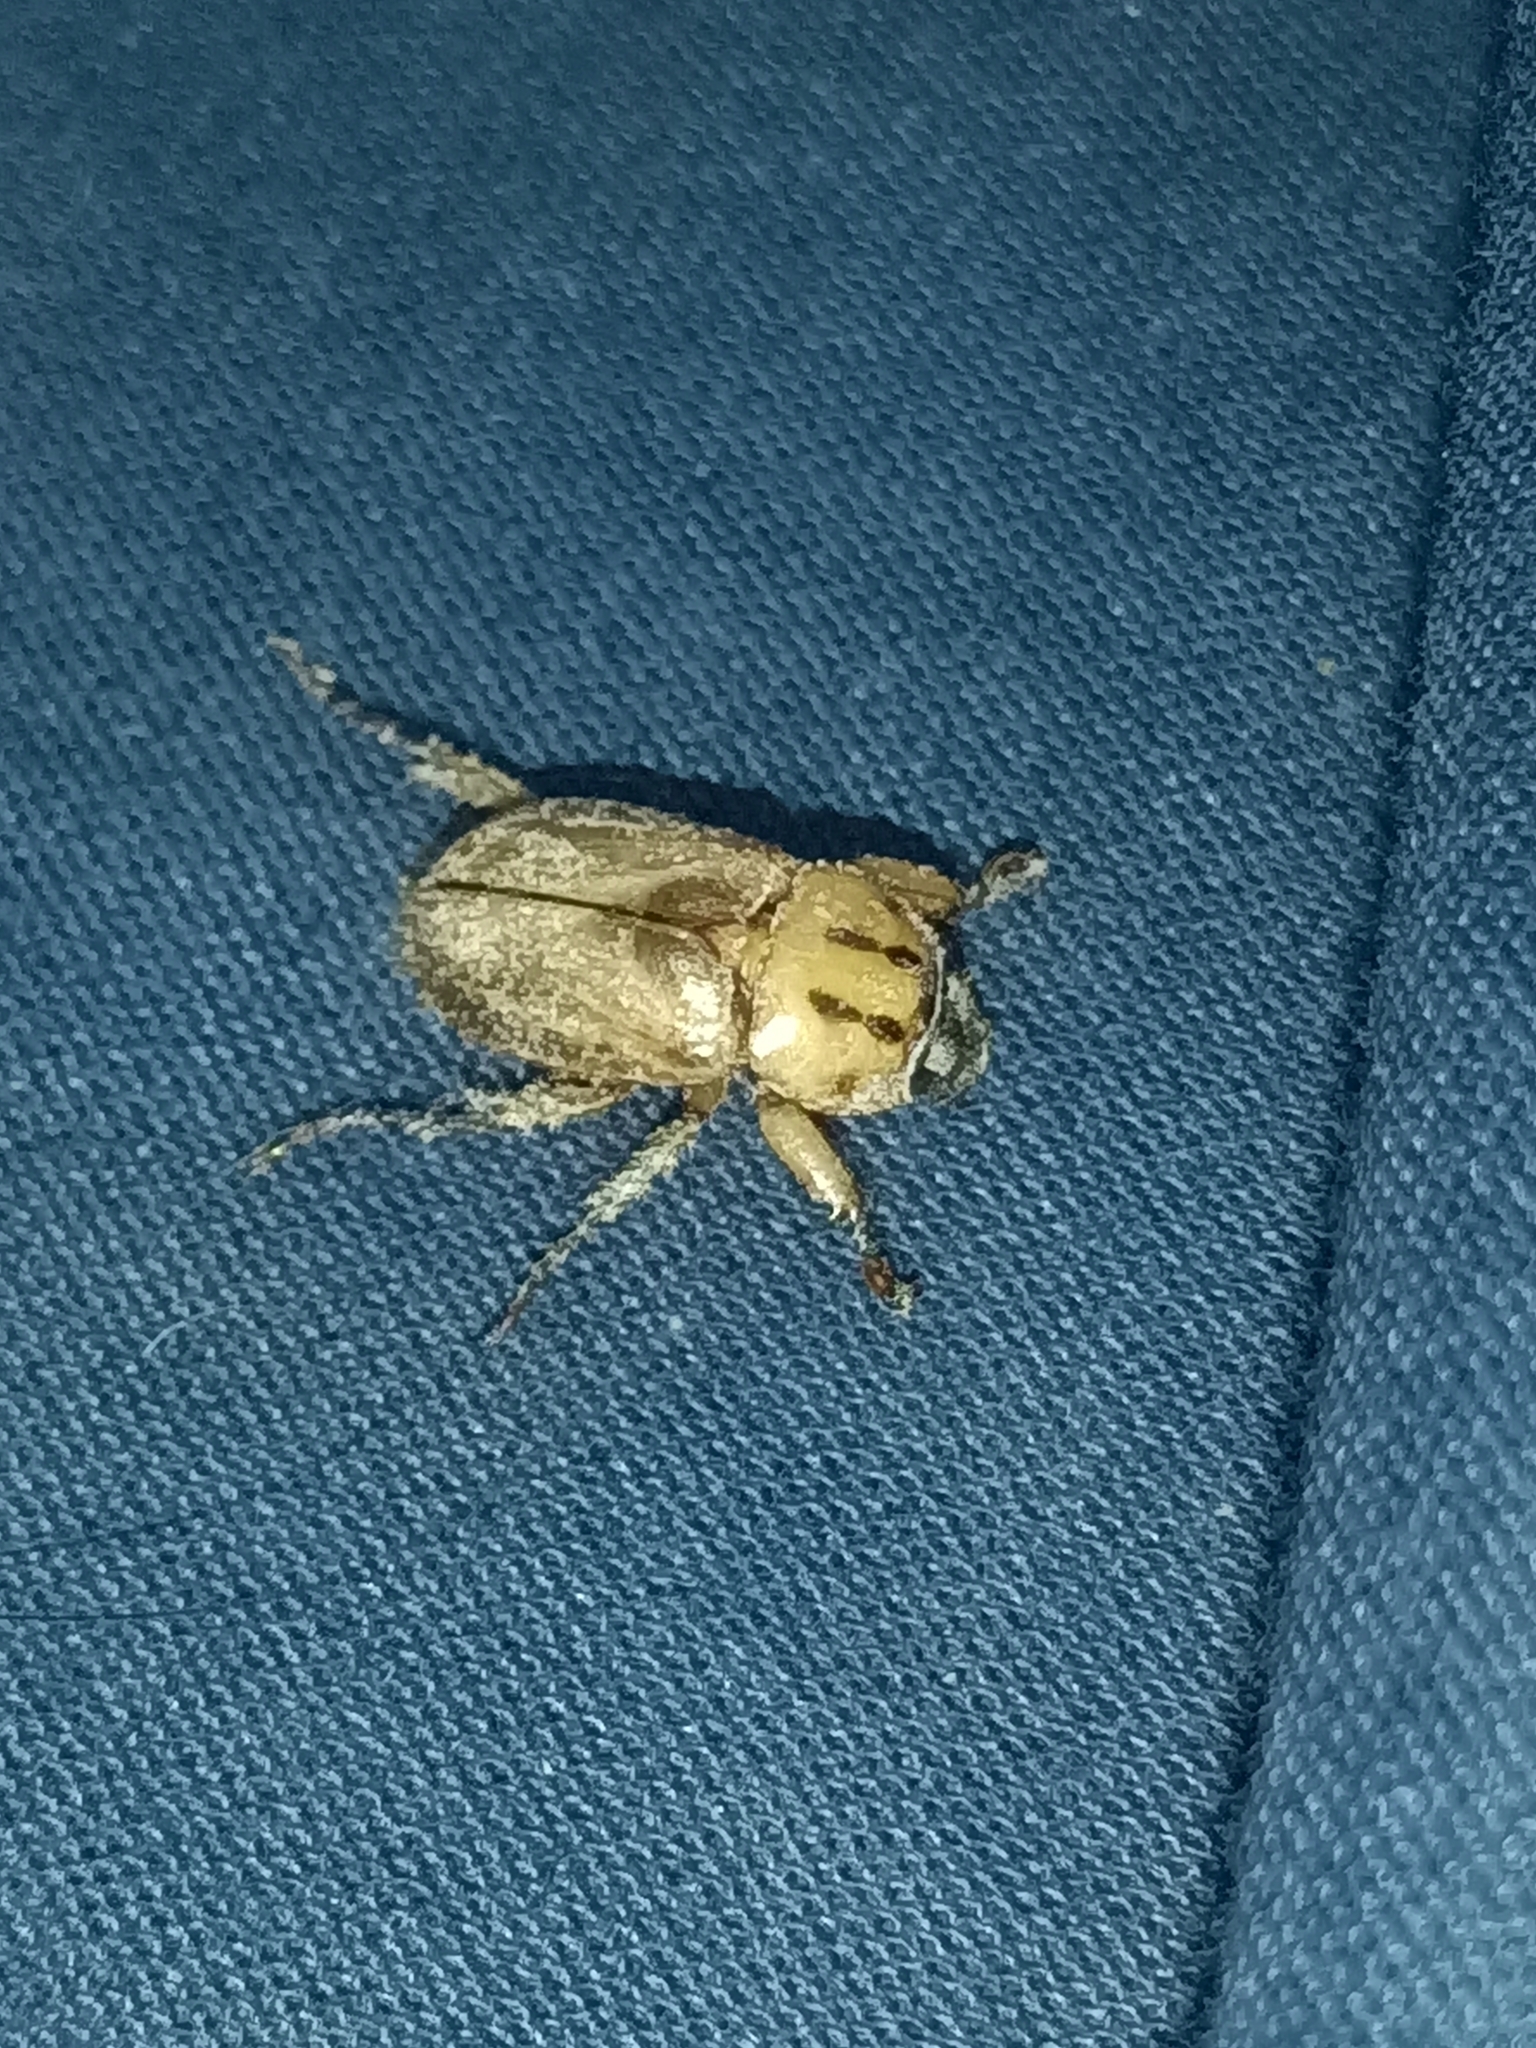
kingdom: Animalia
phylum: Arthropoda
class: Insecta
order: Coleoptera
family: Scarabaeidae
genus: Cyclocephala
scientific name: Cyclocephala amazona
